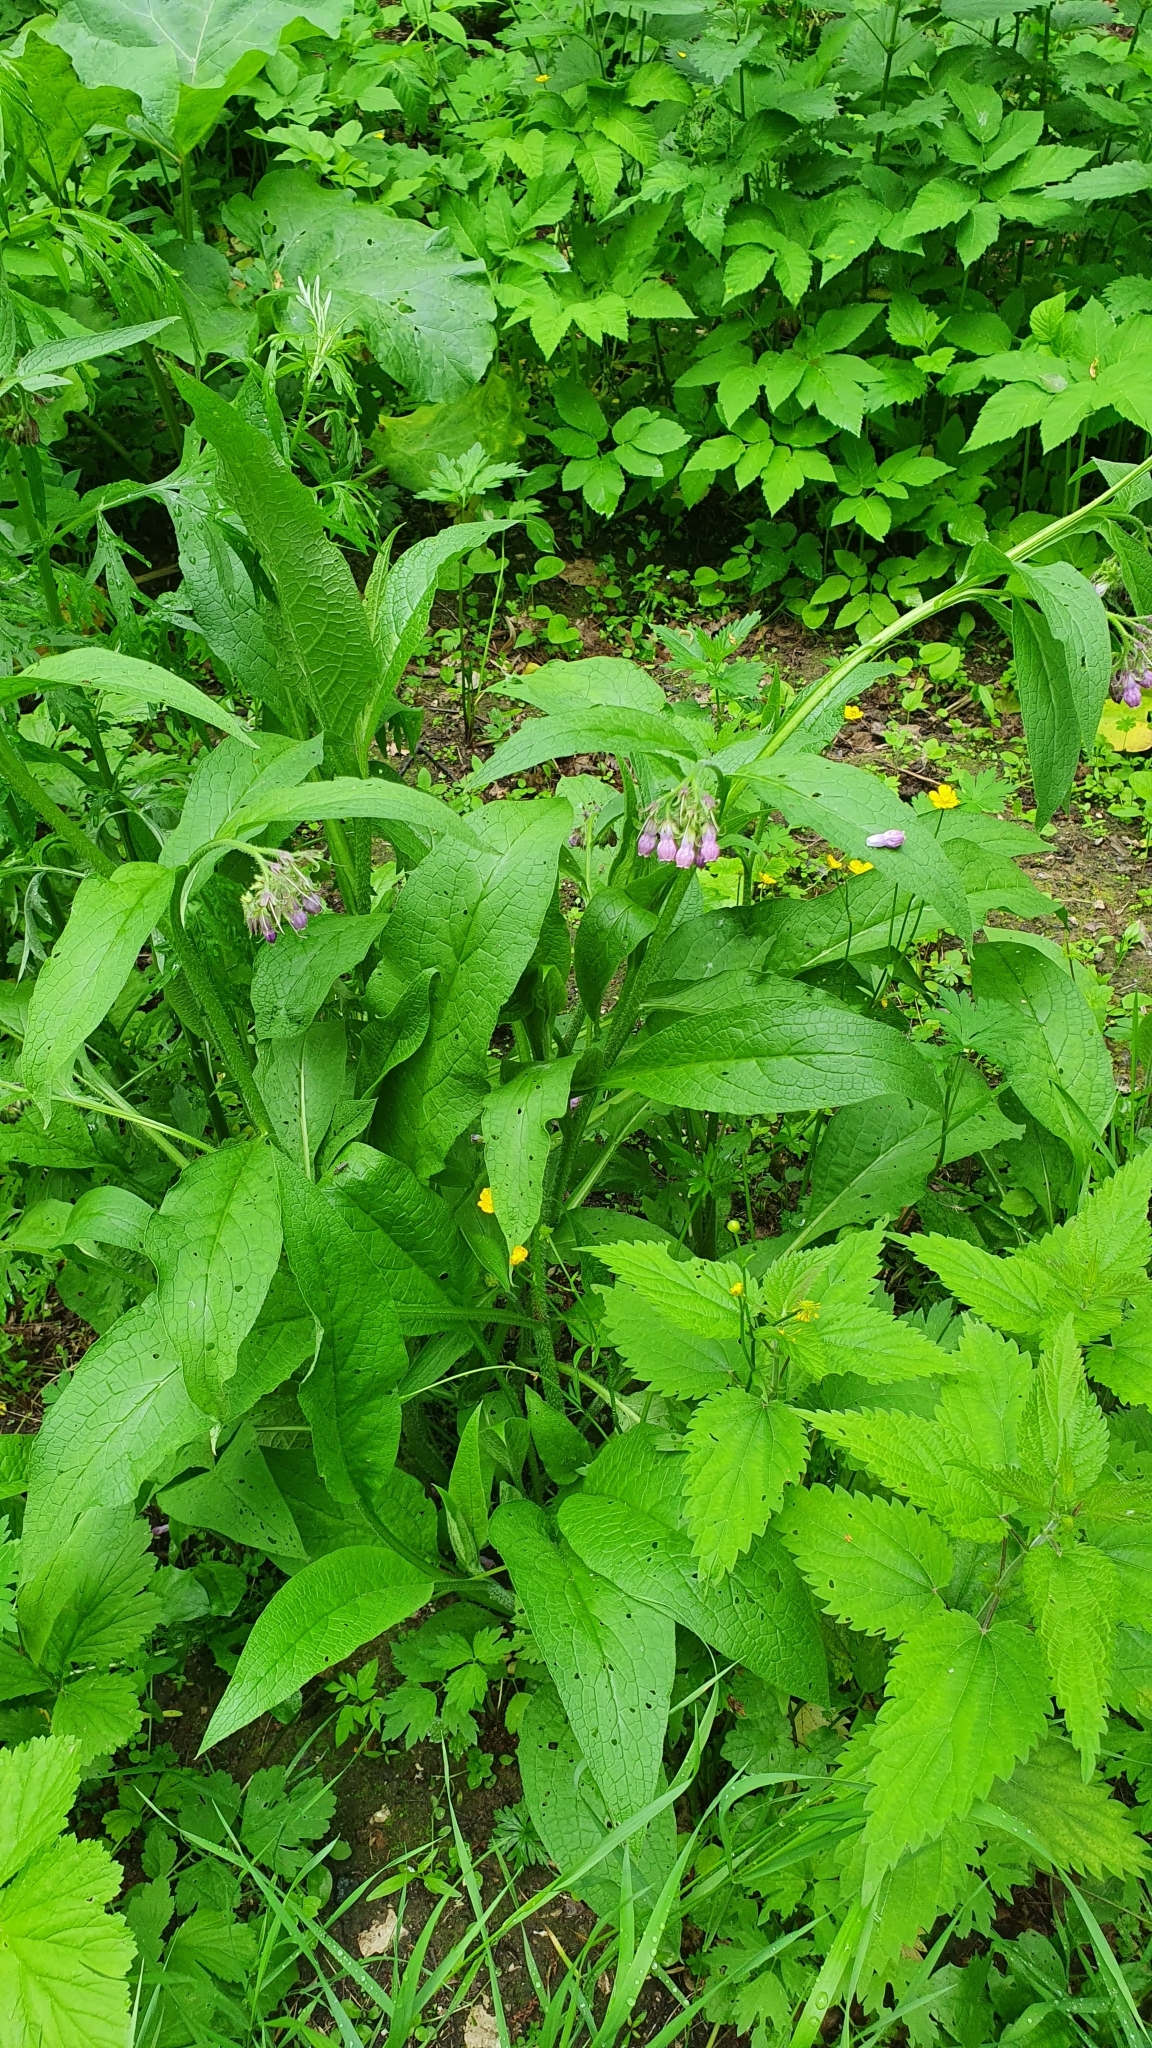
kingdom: Plantae
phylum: Tracheophyta
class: Magnoliopsida
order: Boraginales
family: Boraginaceae
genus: Symphytum
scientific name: Symphytum officinale
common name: Common comfrey
